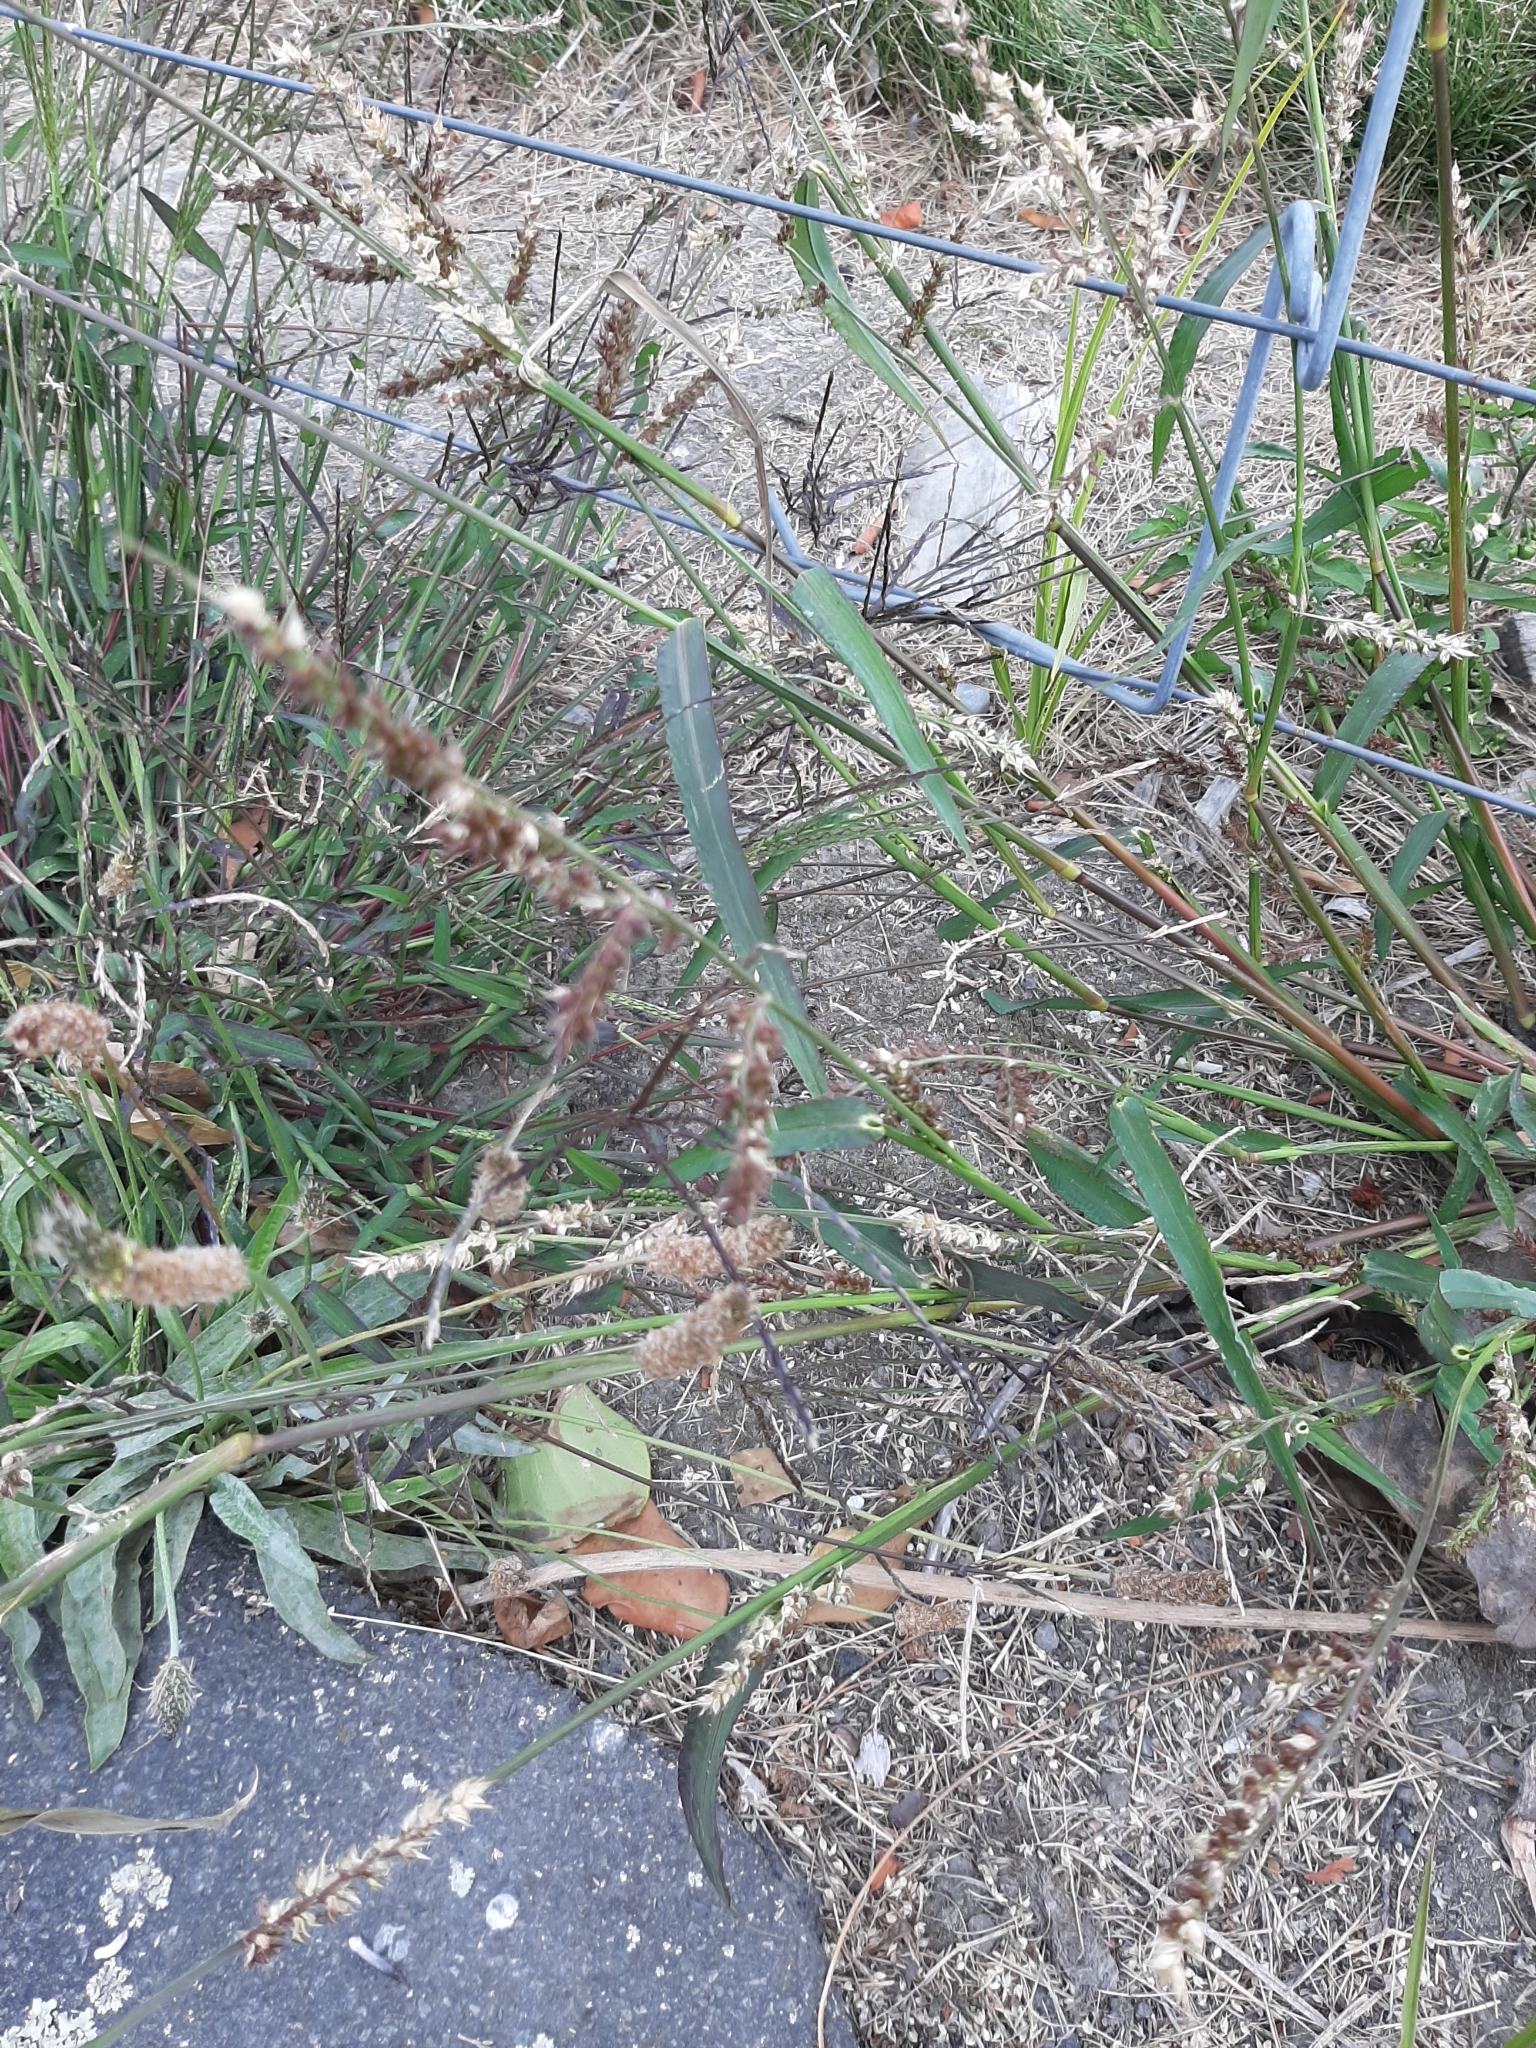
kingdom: Plantae
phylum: Tracheophyta
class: Liliopsida
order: Poales
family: Poaceae
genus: Echinochloa
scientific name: Echinochloa crus-galli
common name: Cockspur
